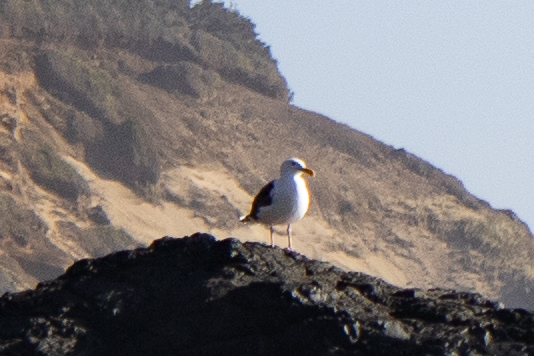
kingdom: Animalia
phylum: Chordata
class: Aves
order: Charadriiformes
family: Laridae
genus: Larus
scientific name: Larus occidentalis
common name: Western gull
